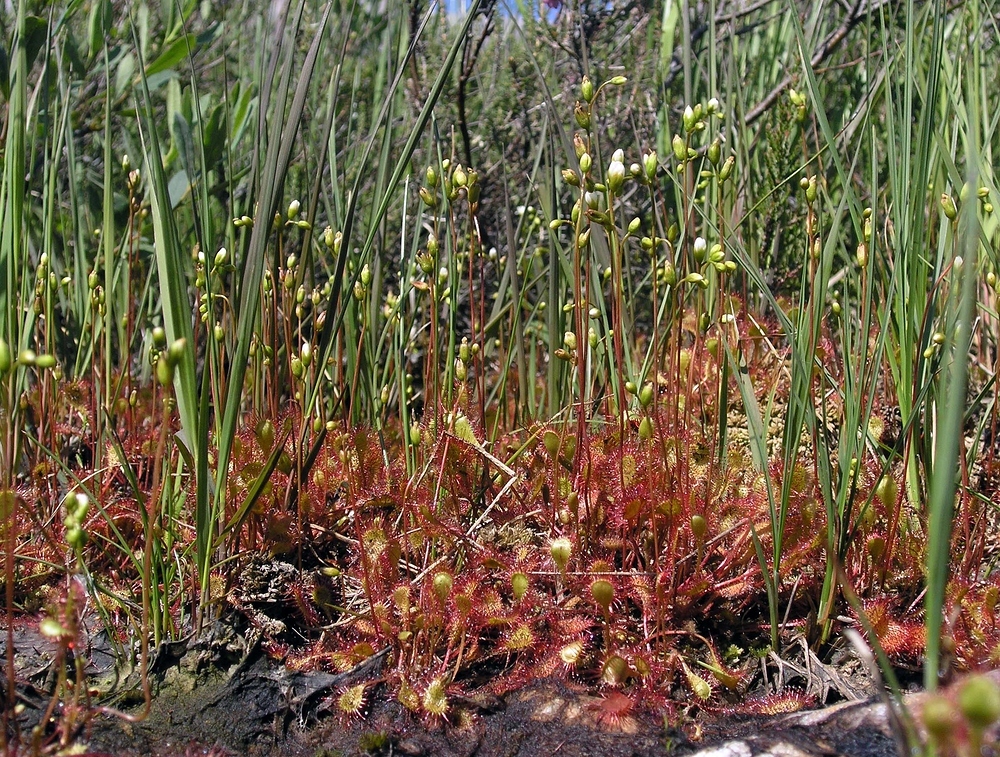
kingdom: Plantae
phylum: Tracheophyta
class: Magnoliopsida
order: Caryophyllales
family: Droseraceae
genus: Drosera
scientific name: Drosera obovata
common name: Ivan's paddle
